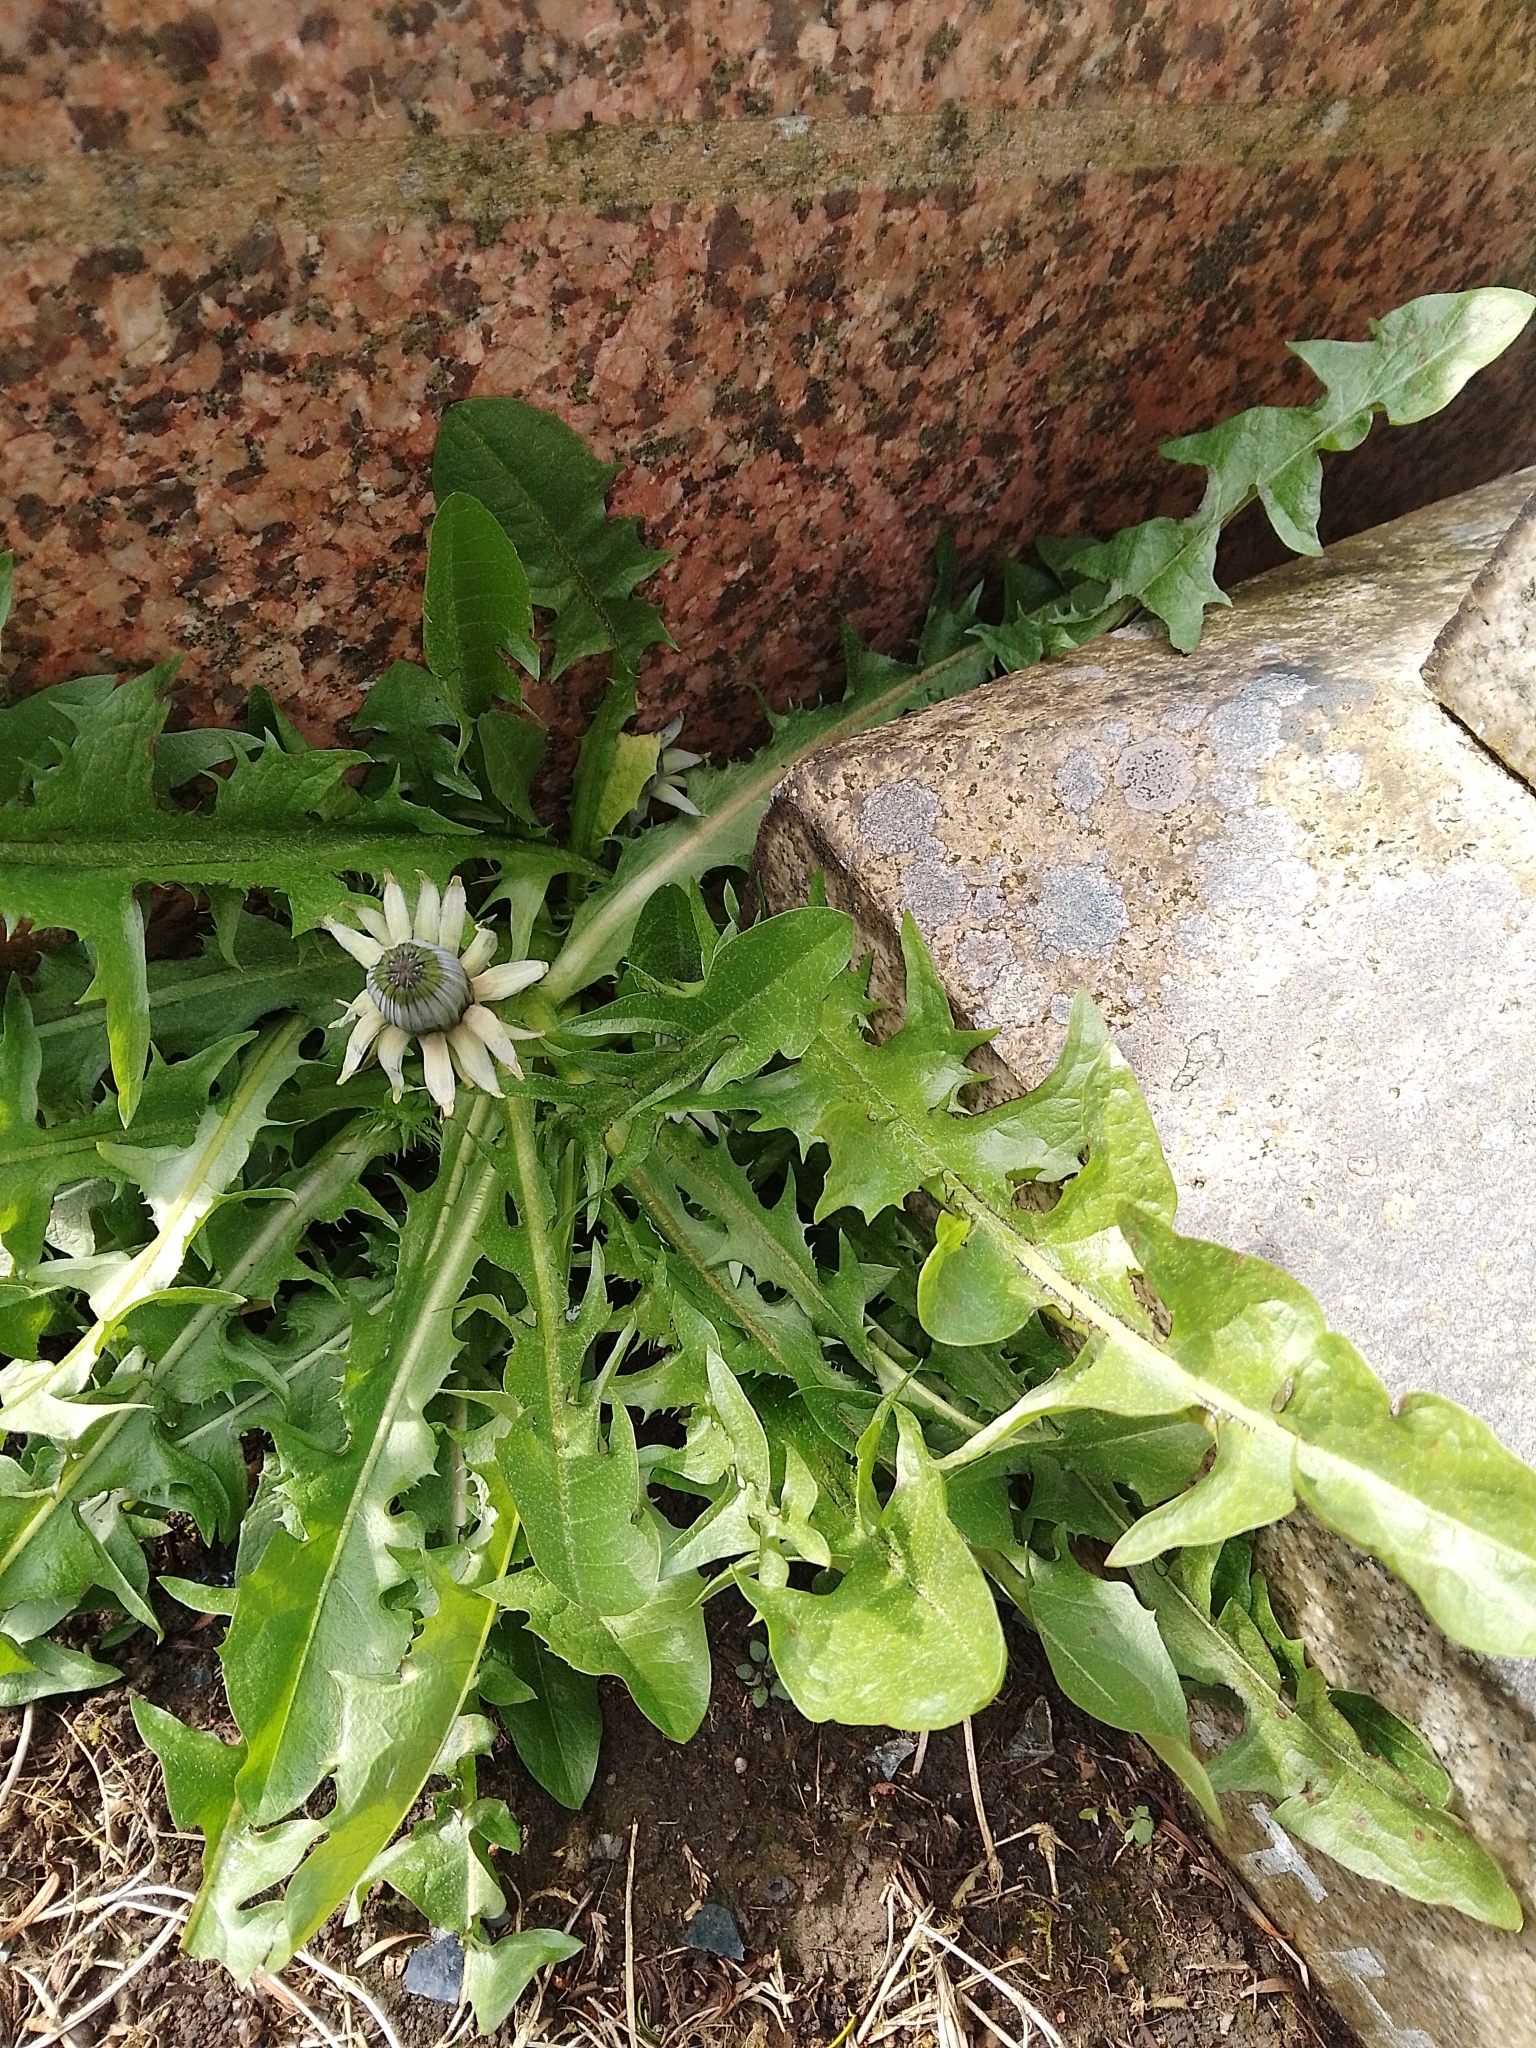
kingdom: Plantae
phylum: Tracheophyta
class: Magnoliopsida
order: Asterales
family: Asteraceae
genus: Taraxacum
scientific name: Taraxacum officinale
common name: Common dandelion
